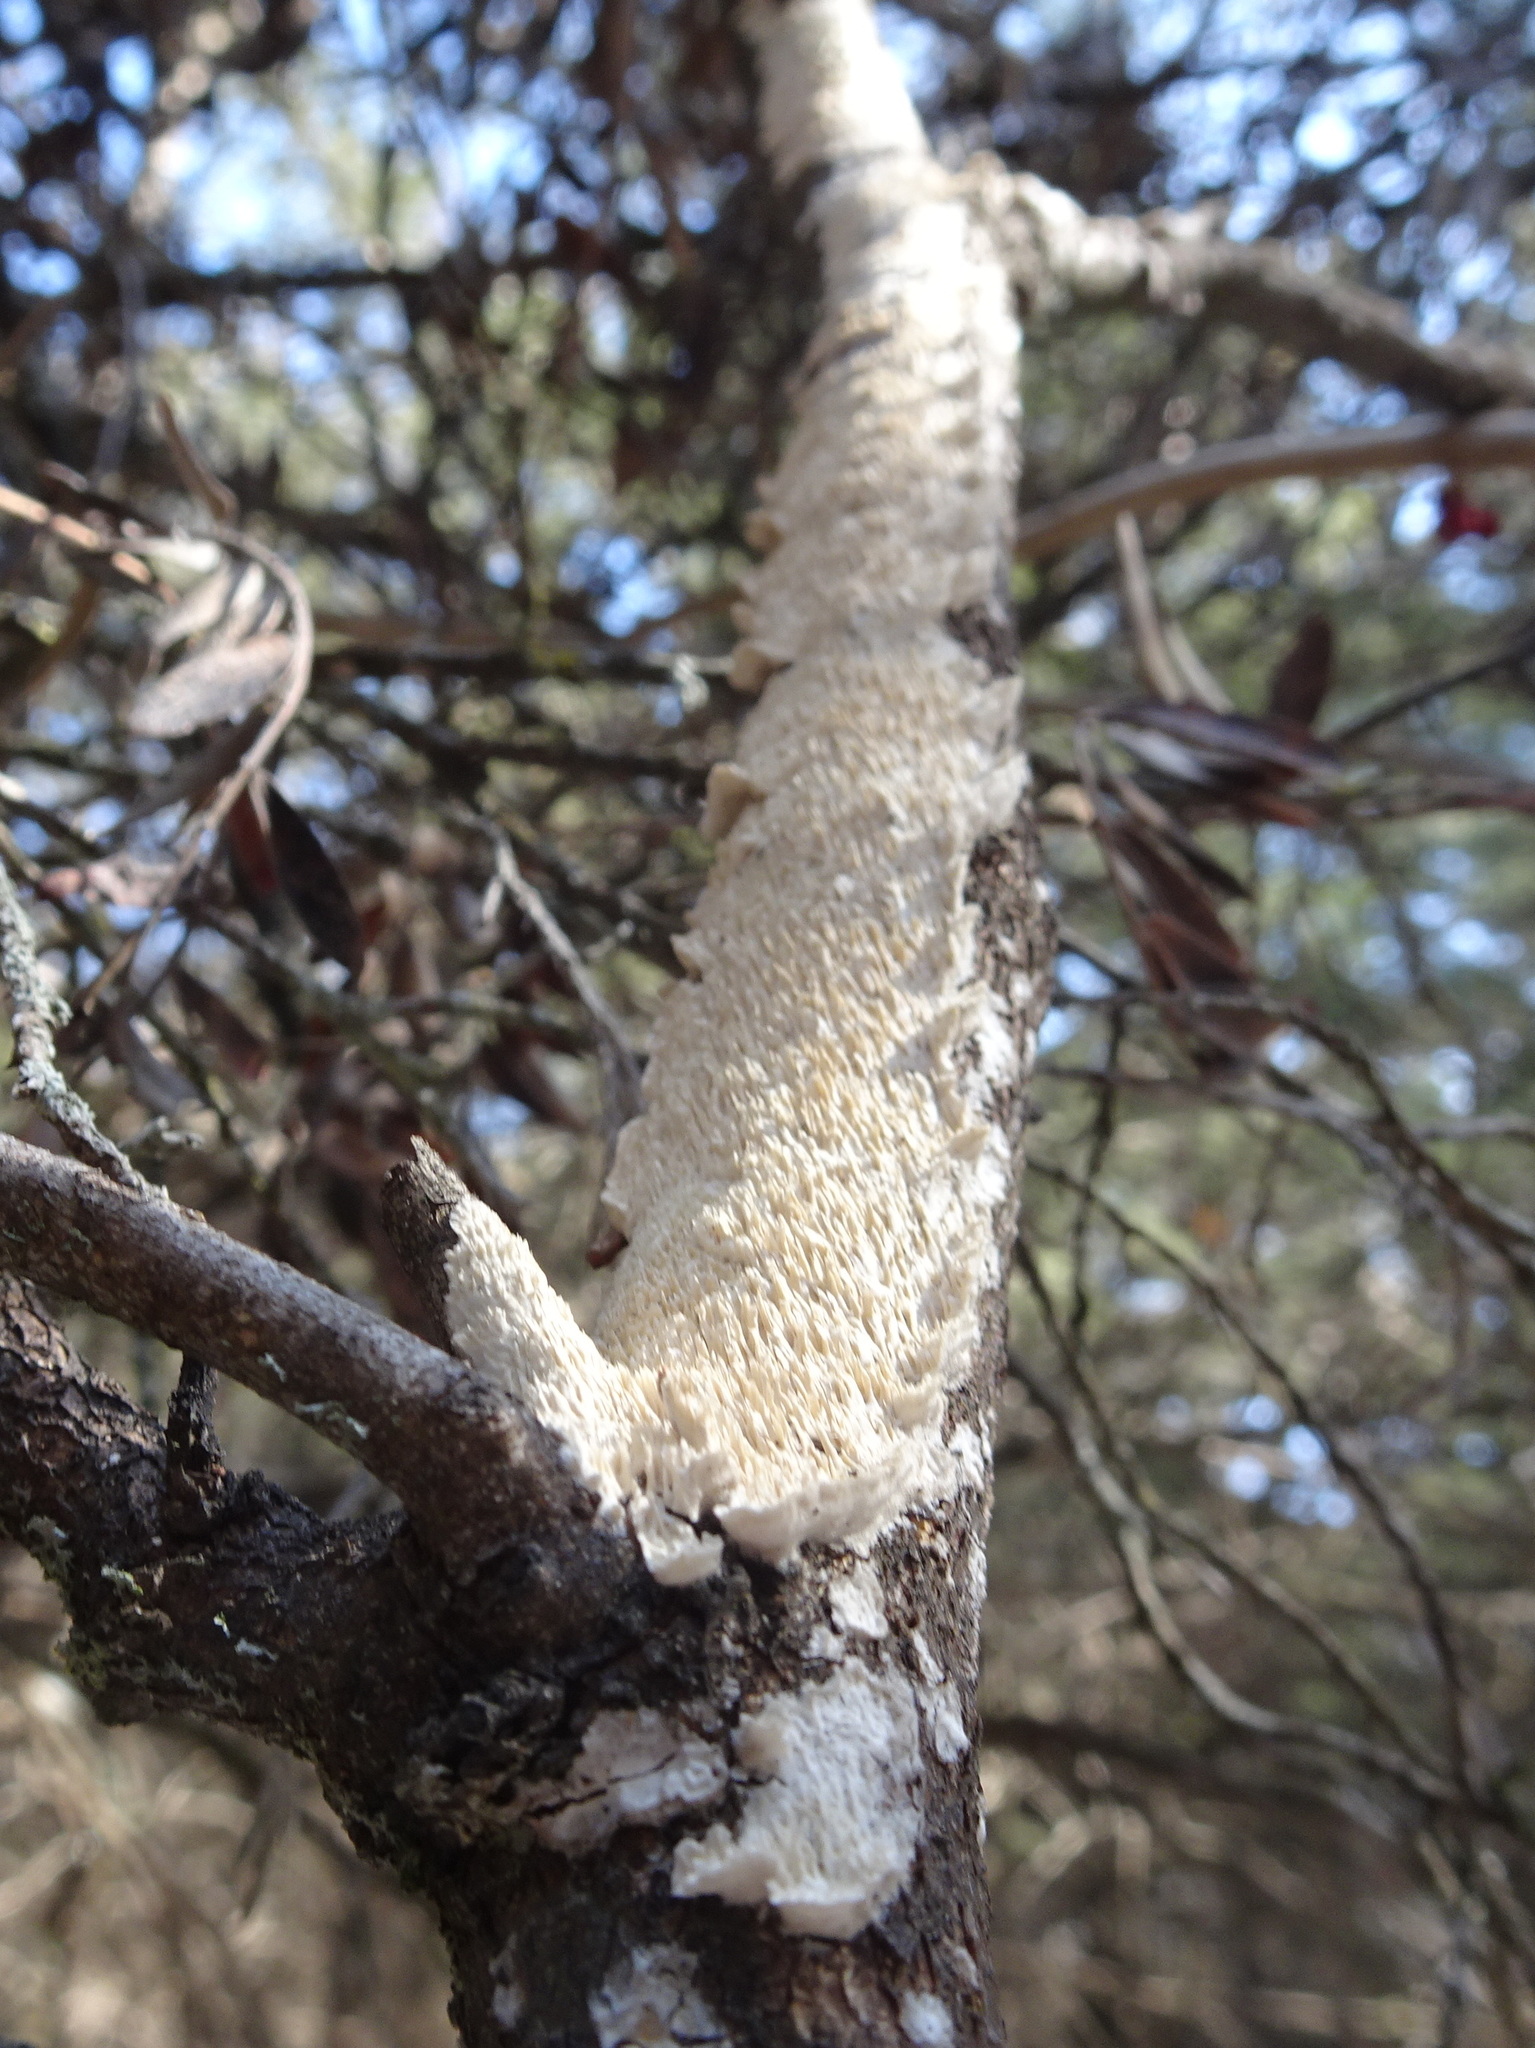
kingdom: Fungi
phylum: Basidiomycota
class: Agaricomycetes
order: Polyporales
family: Irpicaceae
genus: Irpex
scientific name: Irpex lacteus
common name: Milk-white toothed polypore
